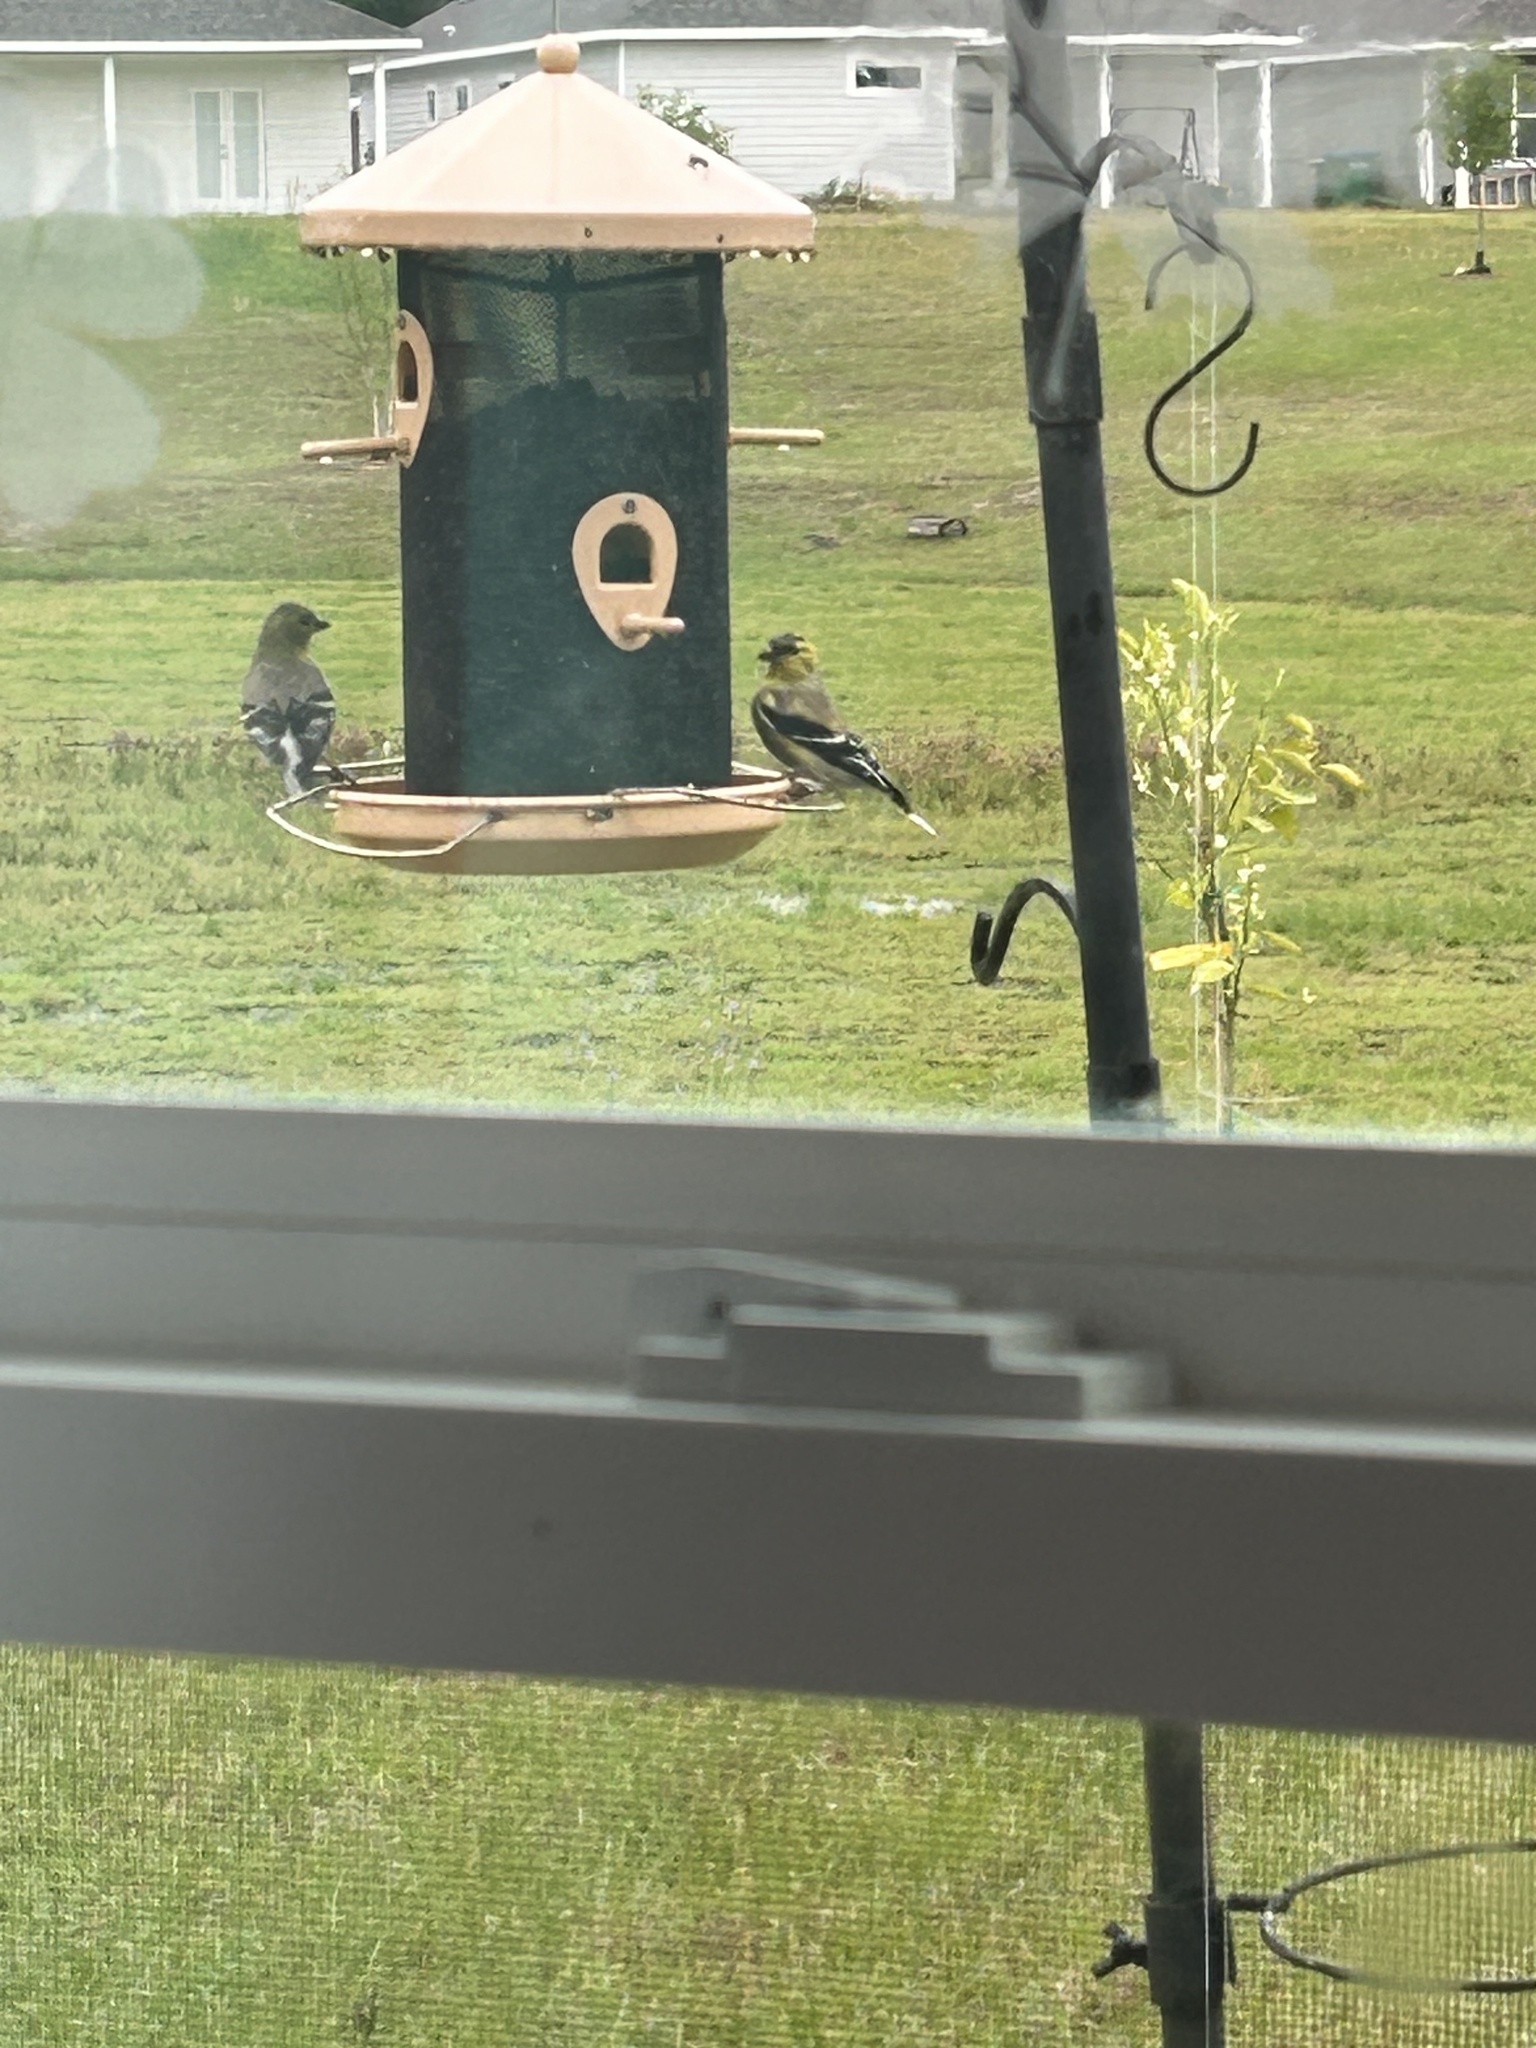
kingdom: Animalia
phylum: Chordata
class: Aves
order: Passeriformes
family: Fringillidae
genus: Spinus
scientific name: Spinus tristis
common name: American goldfinch
